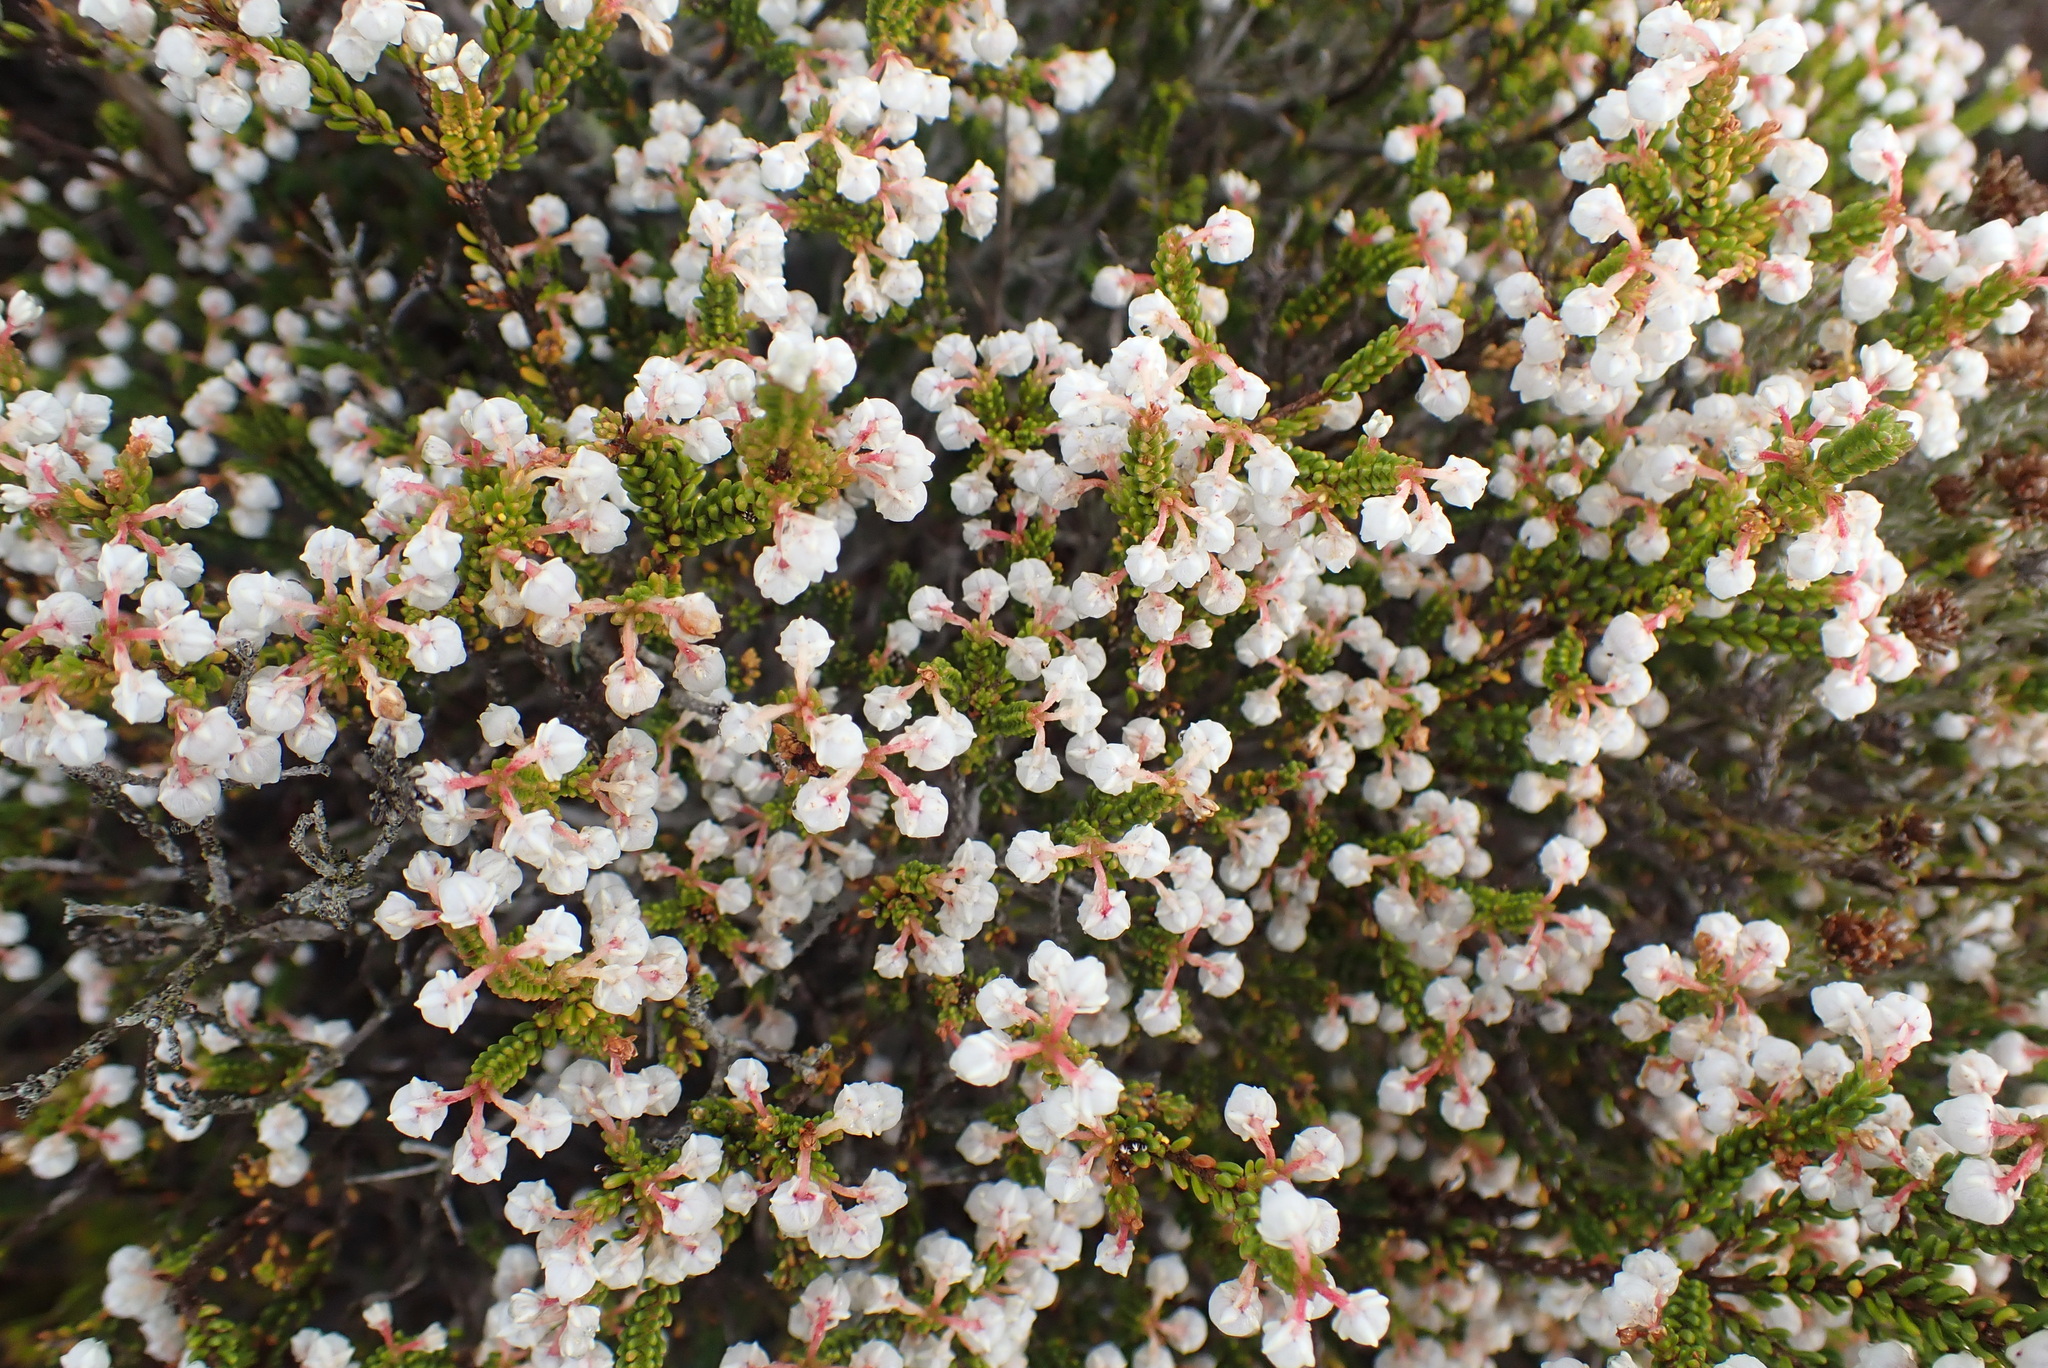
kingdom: Plantae
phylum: Tracheophyta
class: Magnoliopsida
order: Ericales
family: Ericaceae
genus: Erica
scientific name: Erica spectabilis
